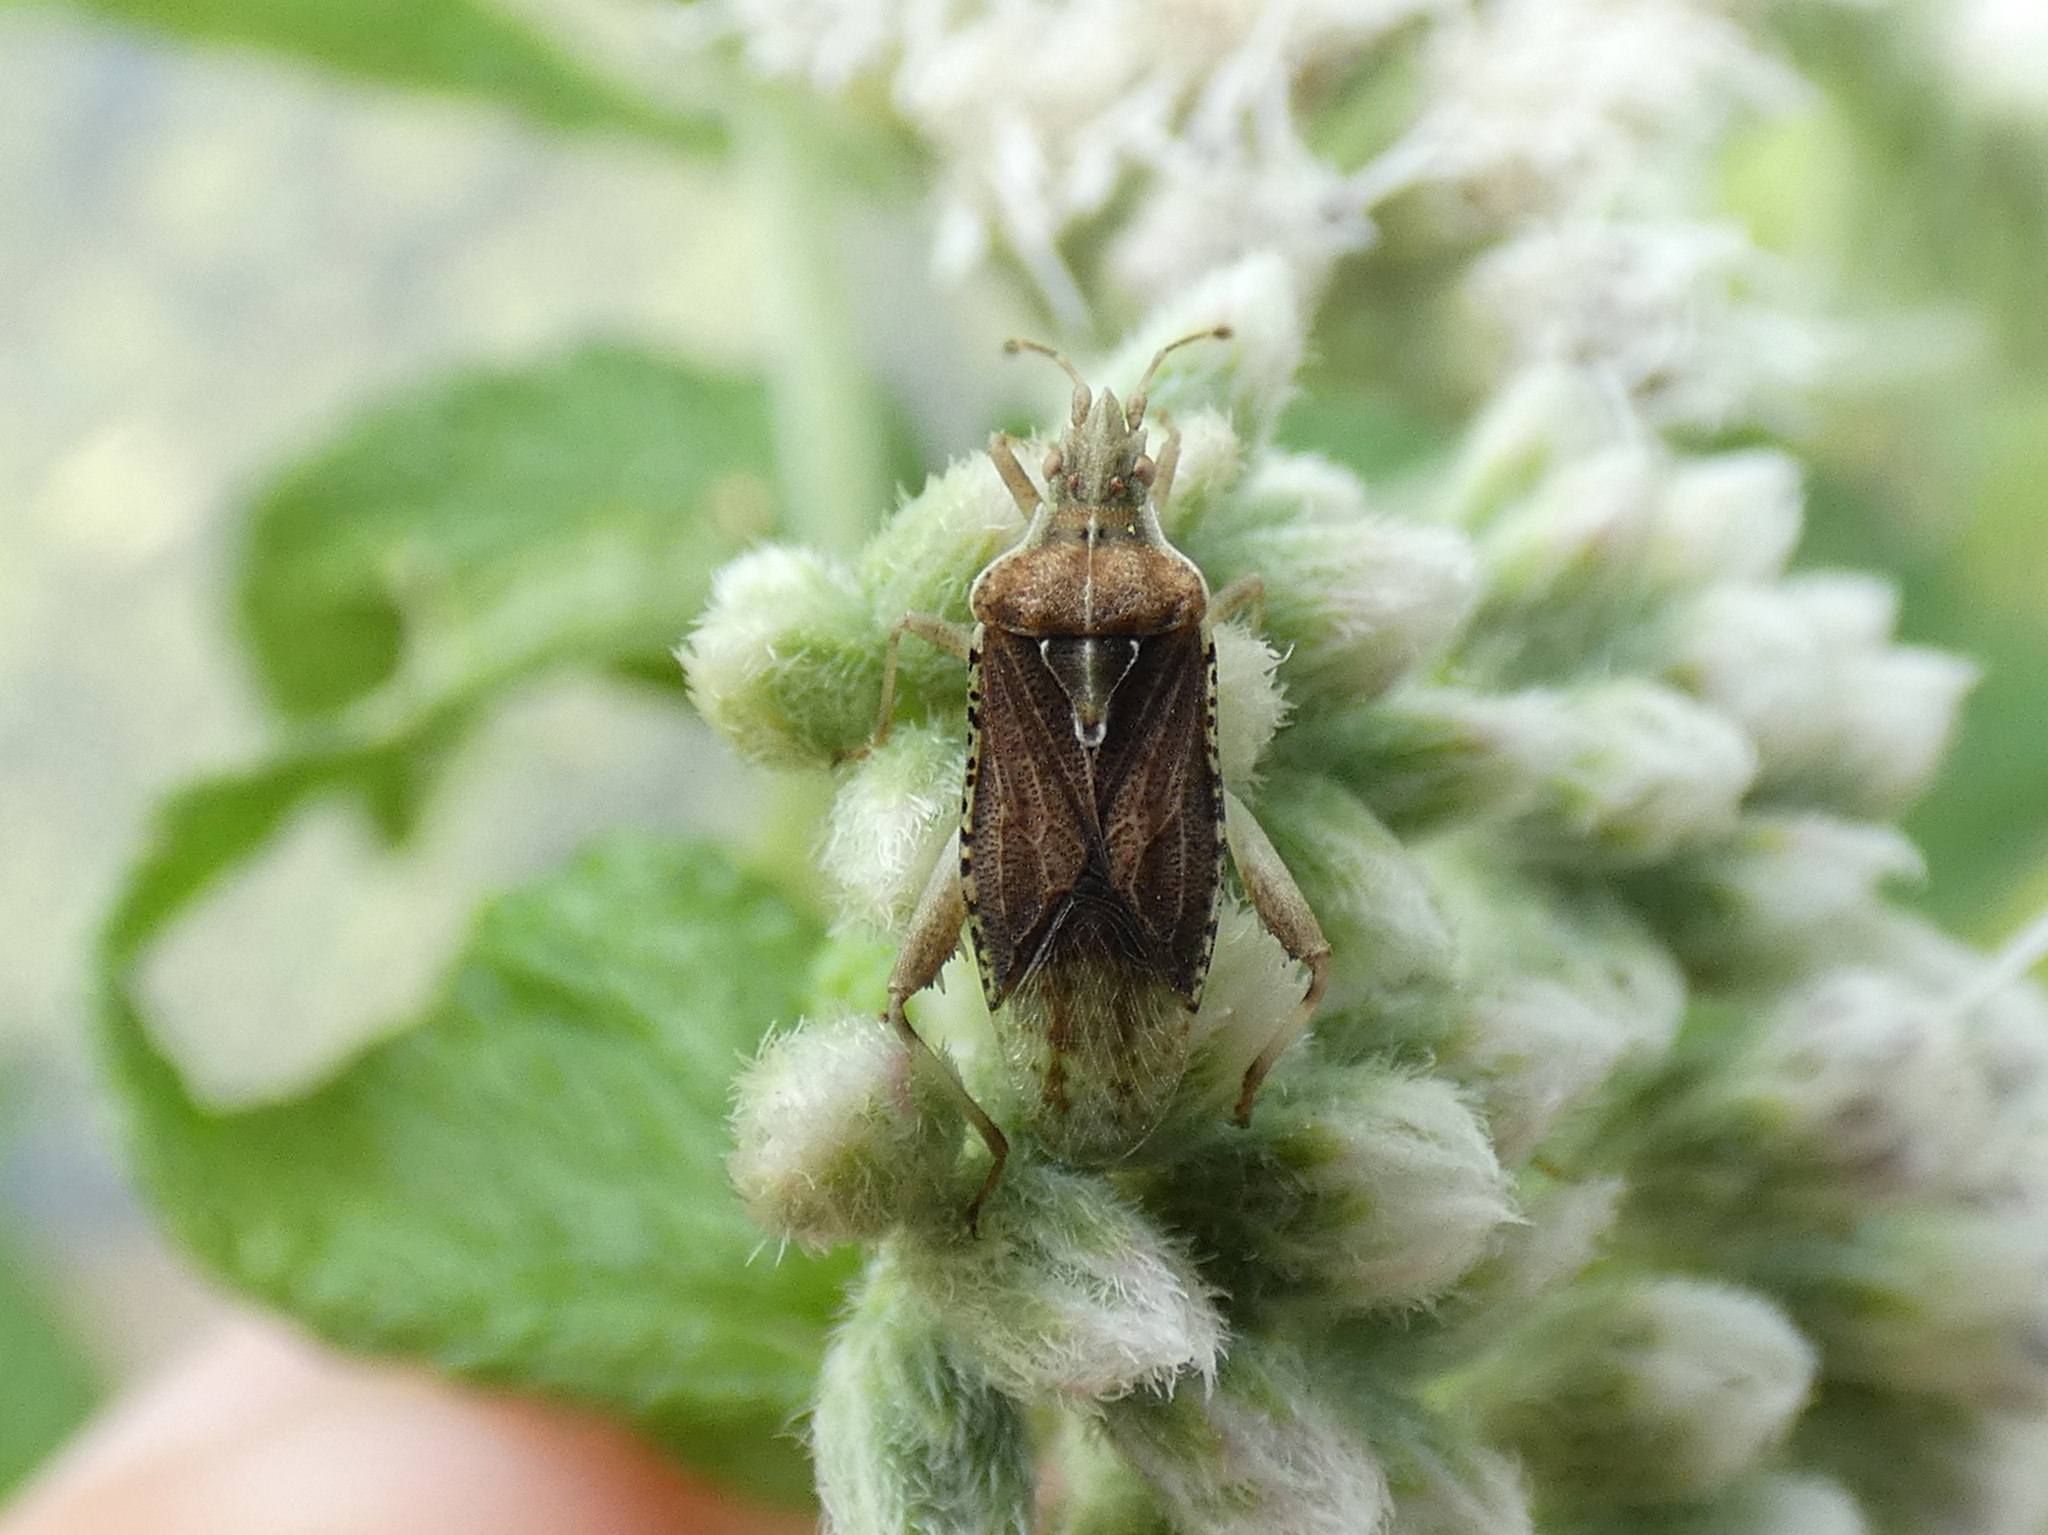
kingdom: Animalia
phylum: Arthropoda
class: Insecta
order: Hemiptera
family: Rhopalidae
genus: Harmostes
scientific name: Harmostes fraterculus
